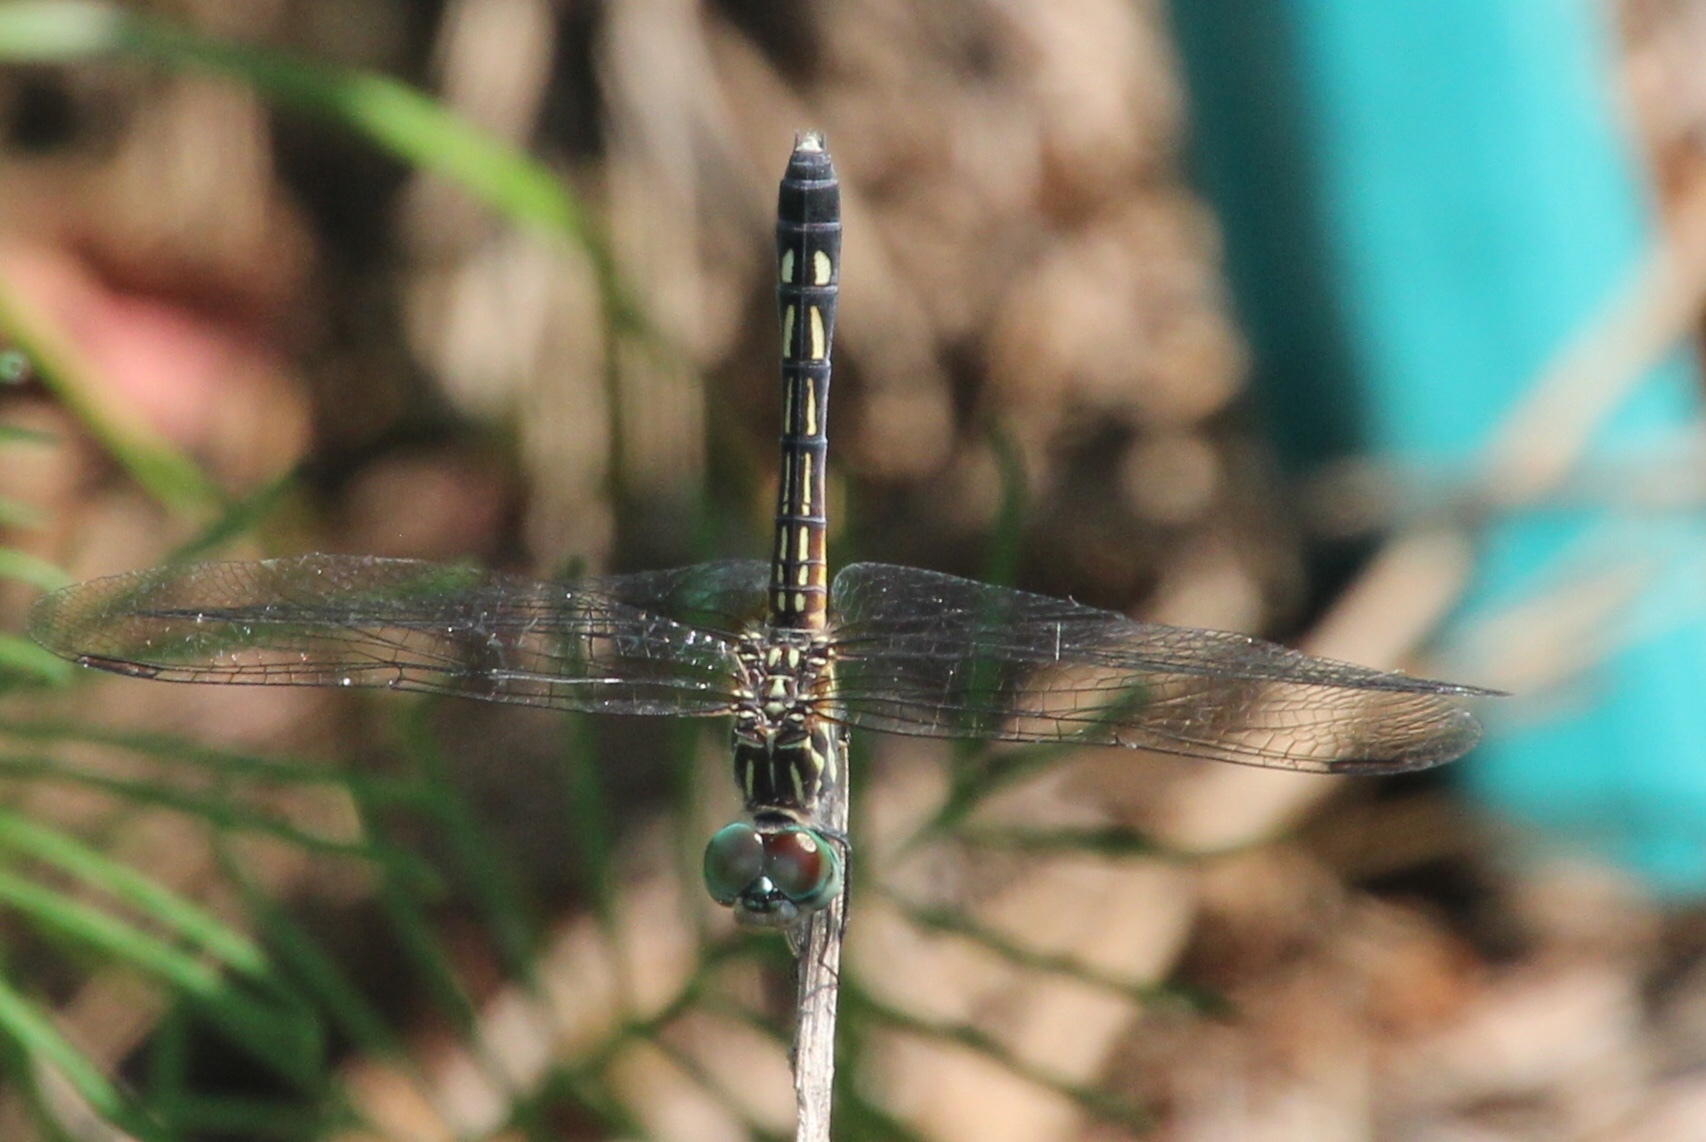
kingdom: Animalia
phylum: Arthropoda
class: Insecta
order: Odonata
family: Libellulidae
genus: Pachydiplax
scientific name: Pachydiplax longipennis
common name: Blue dasher
